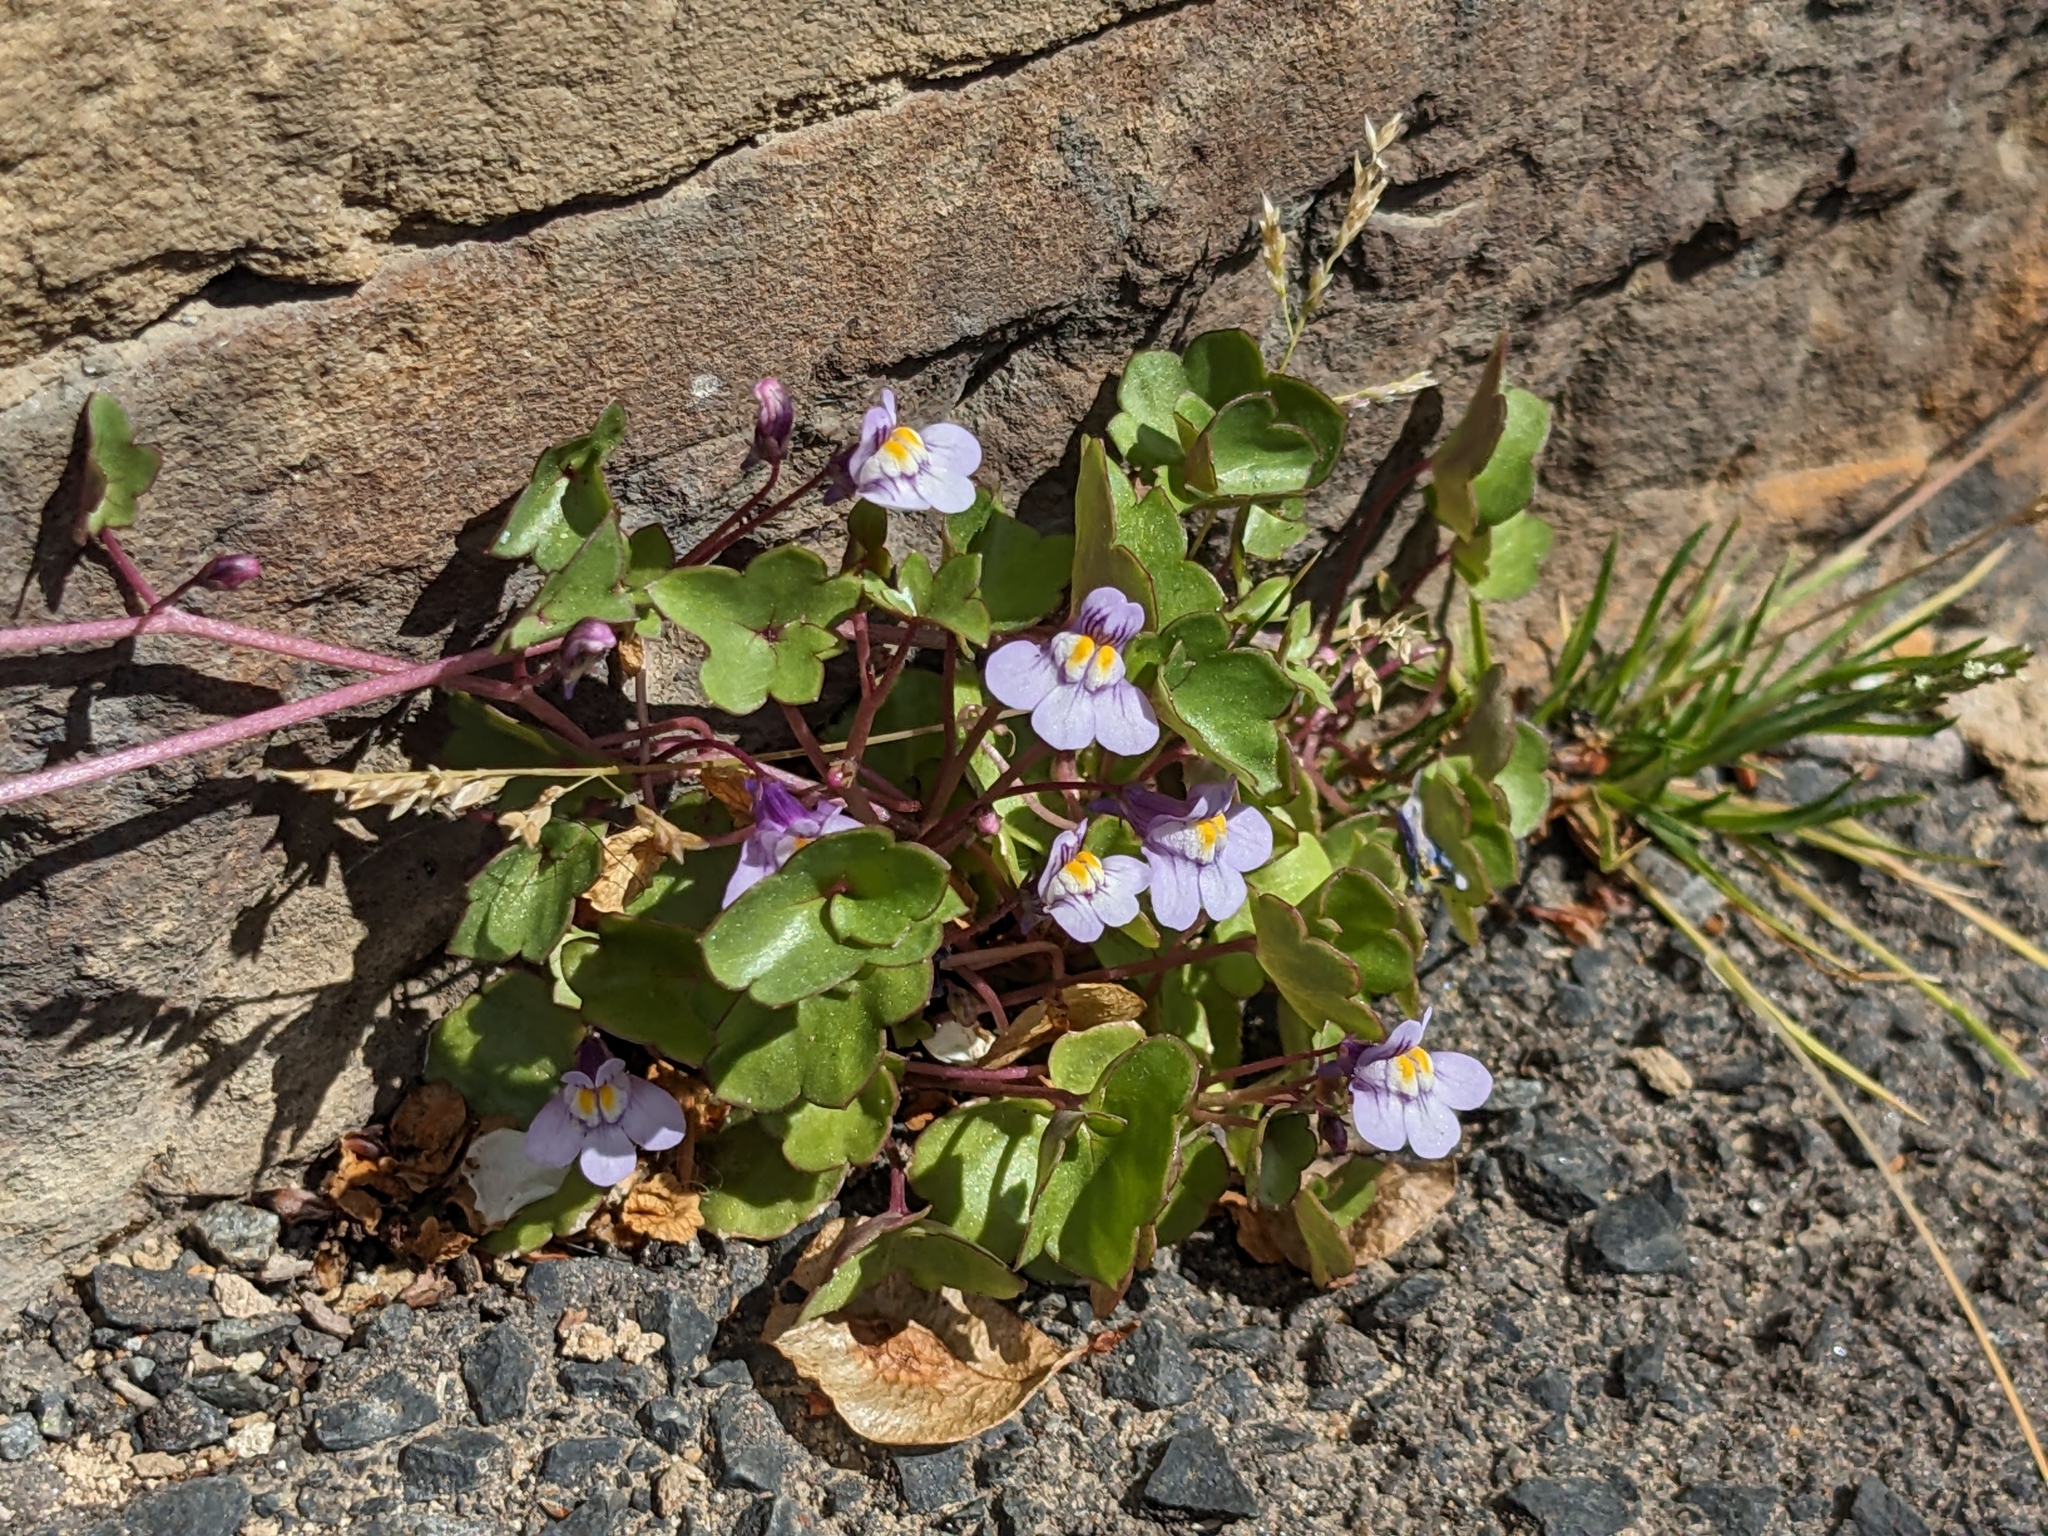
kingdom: Plantae
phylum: Tracheophyta
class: Magnoliopsida
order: Lamiales
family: Plantaginaceae
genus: Cymbalaria
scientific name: Cymbalaria muralis
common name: Ivy-leaved toadflax
